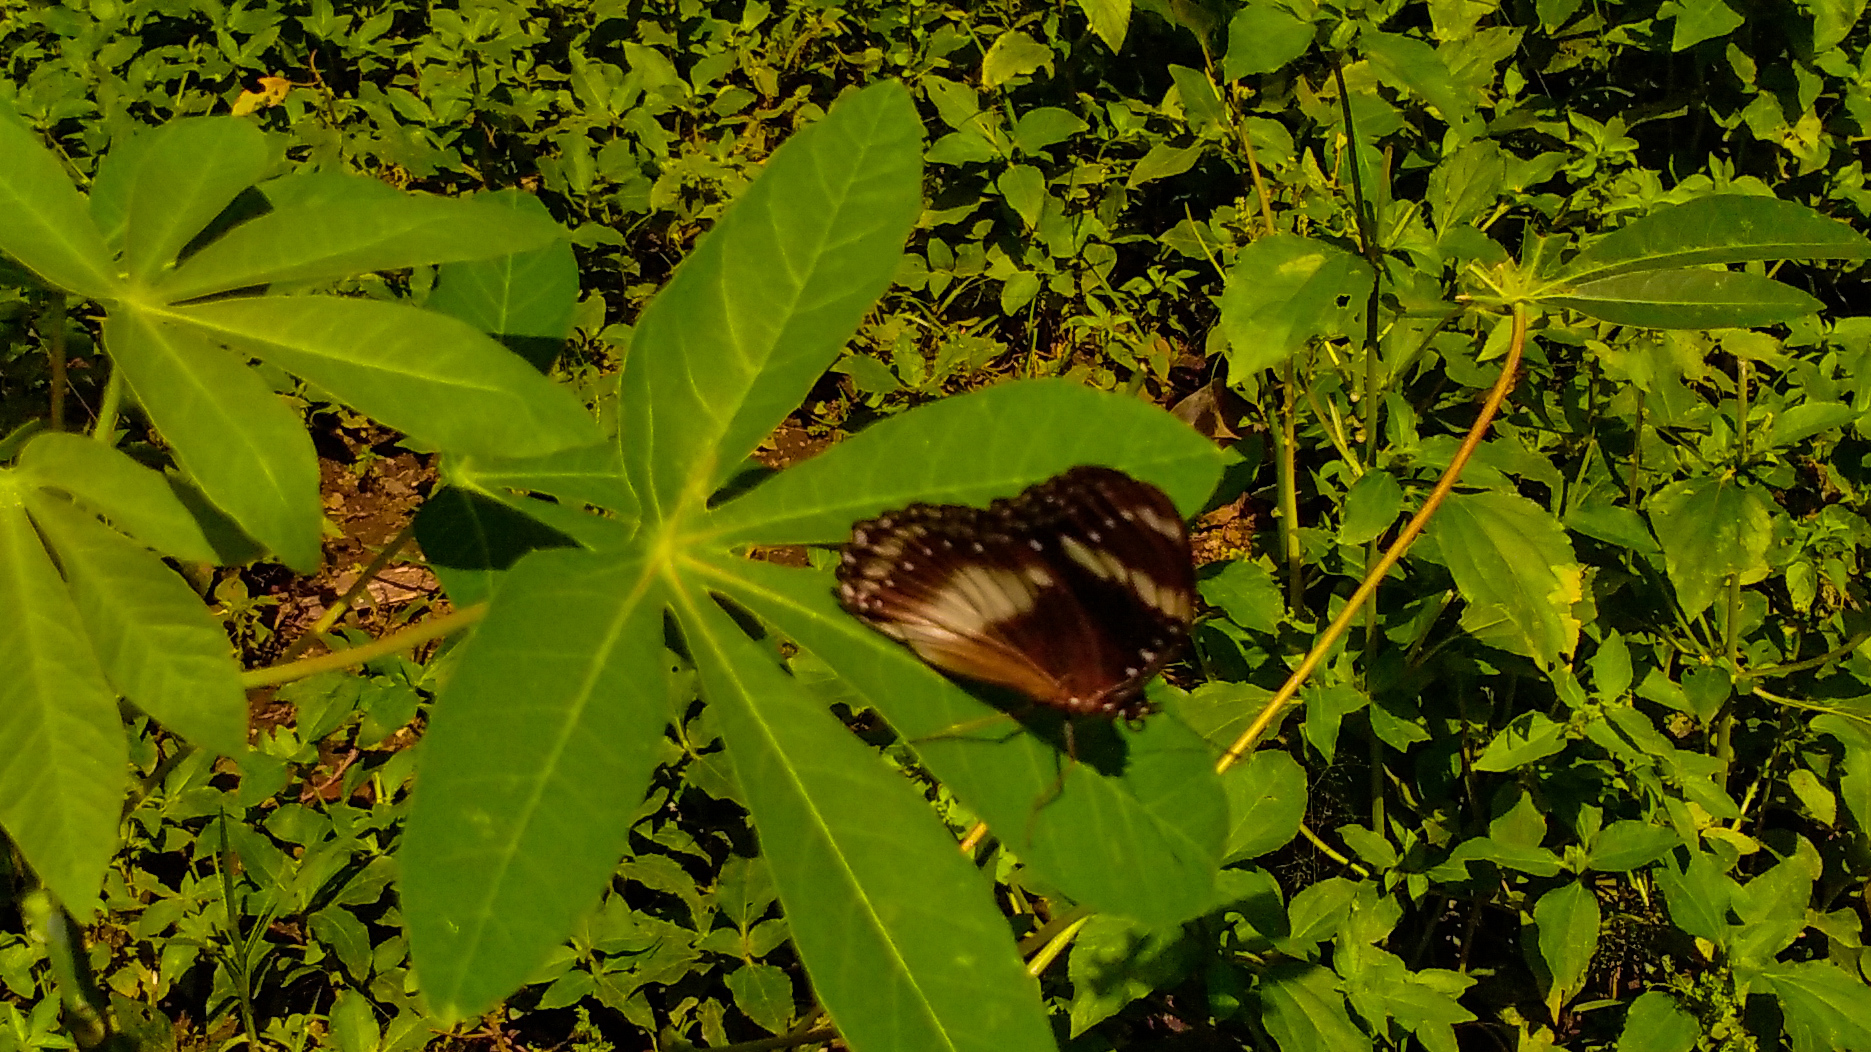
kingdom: Animalia
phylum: Arthropoda
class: Insecta
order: Lepidoptera
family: Nymphalidae
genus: Hypolimnas
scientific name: Hypolimnas bolina
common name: Great eggfly
